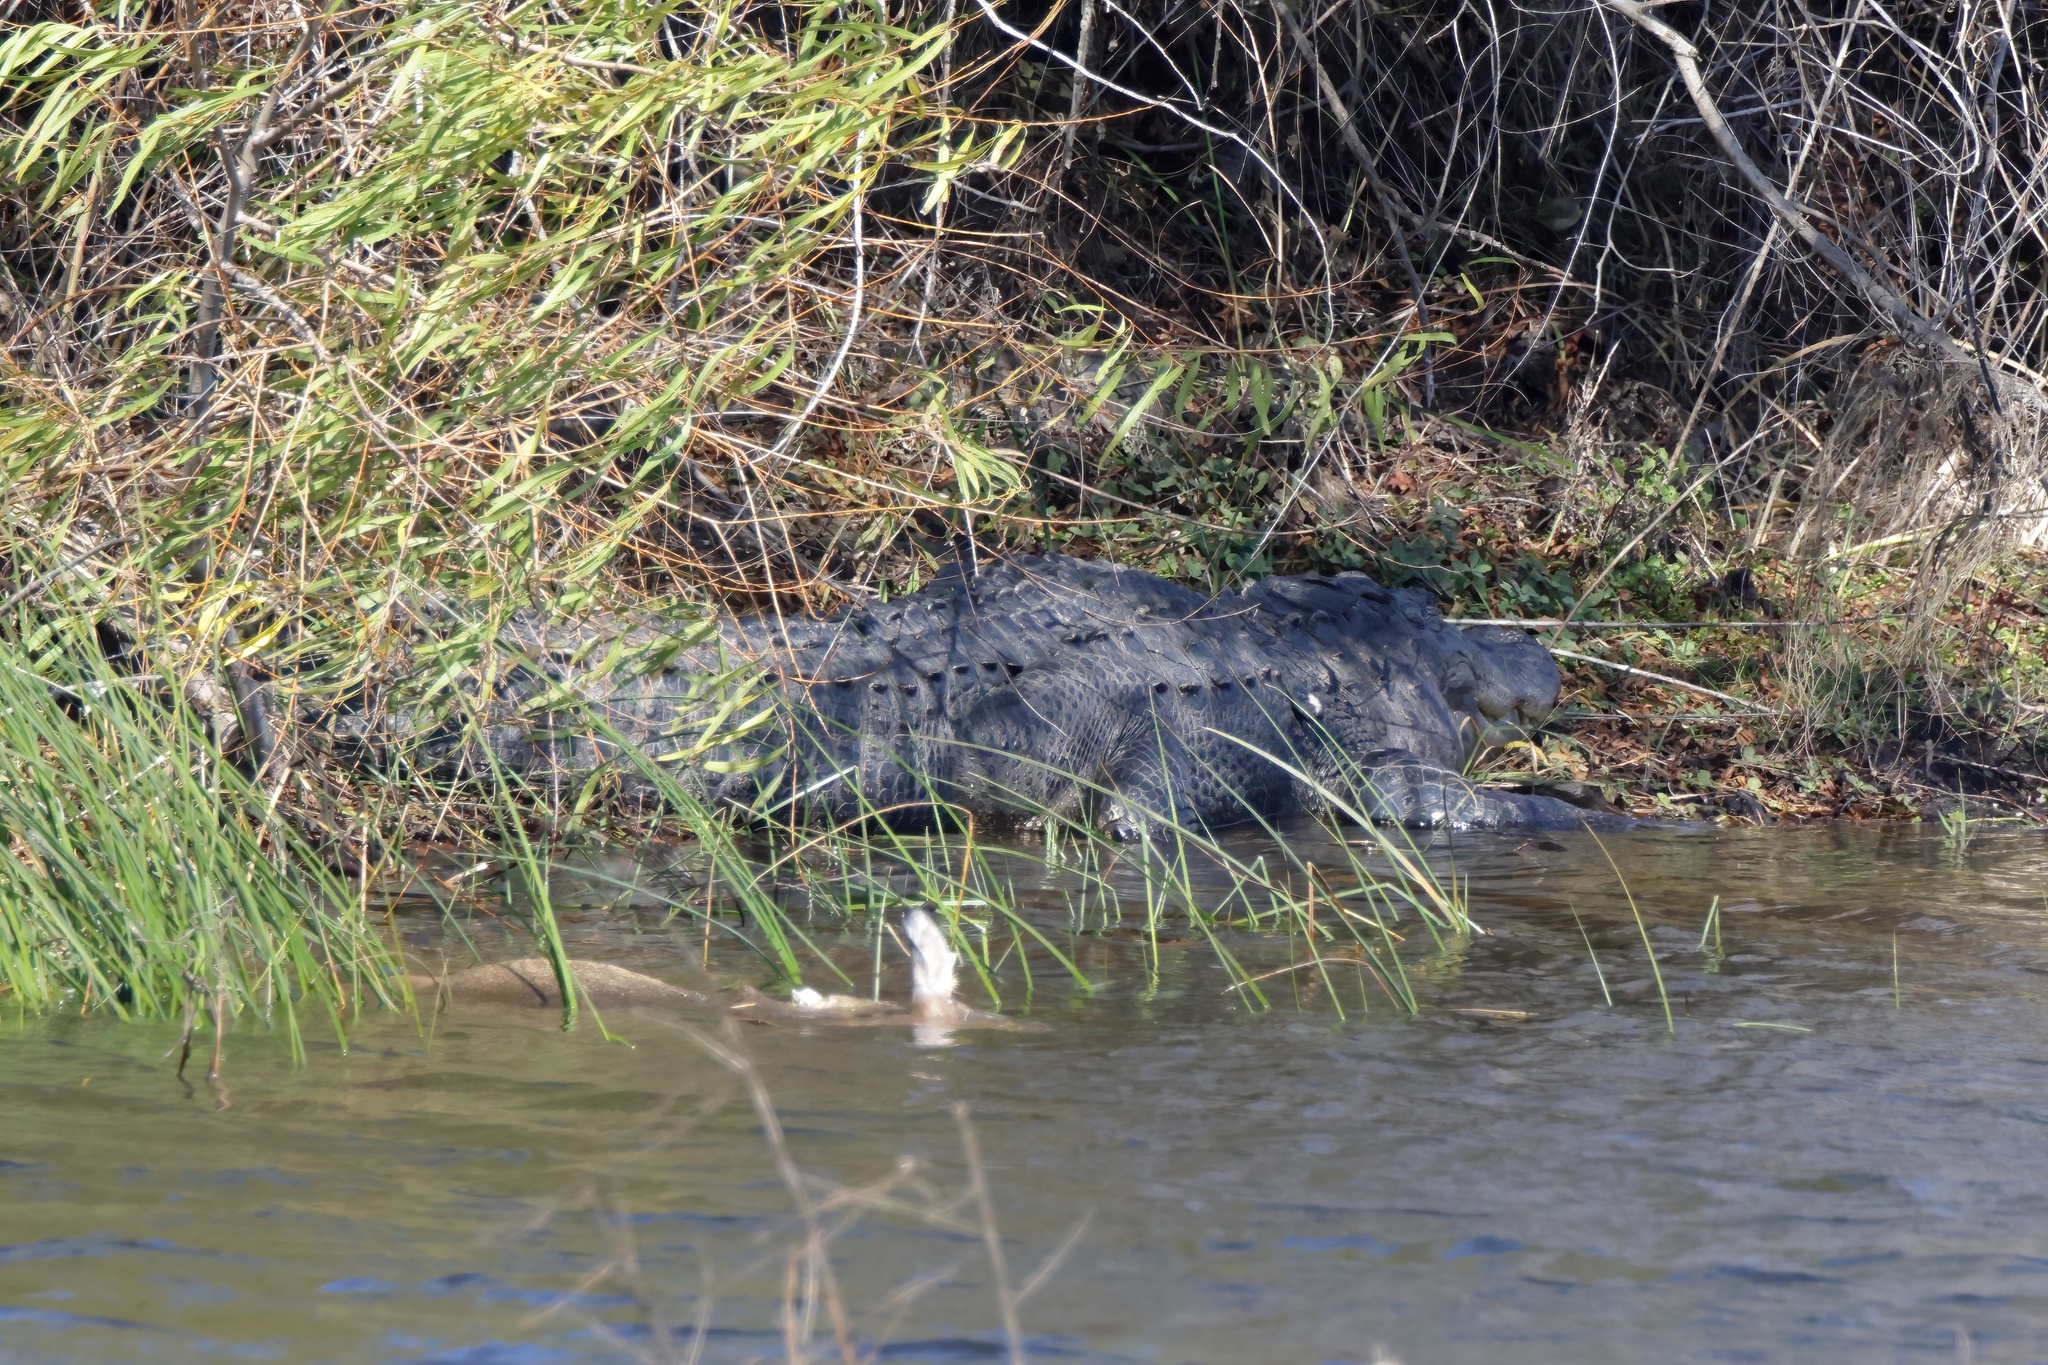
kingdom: Animalia
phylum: Chordata
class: Crocodylia
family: Alligatoridae
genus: Alligator
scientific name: Alligator mississippiensis
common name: American alligator
